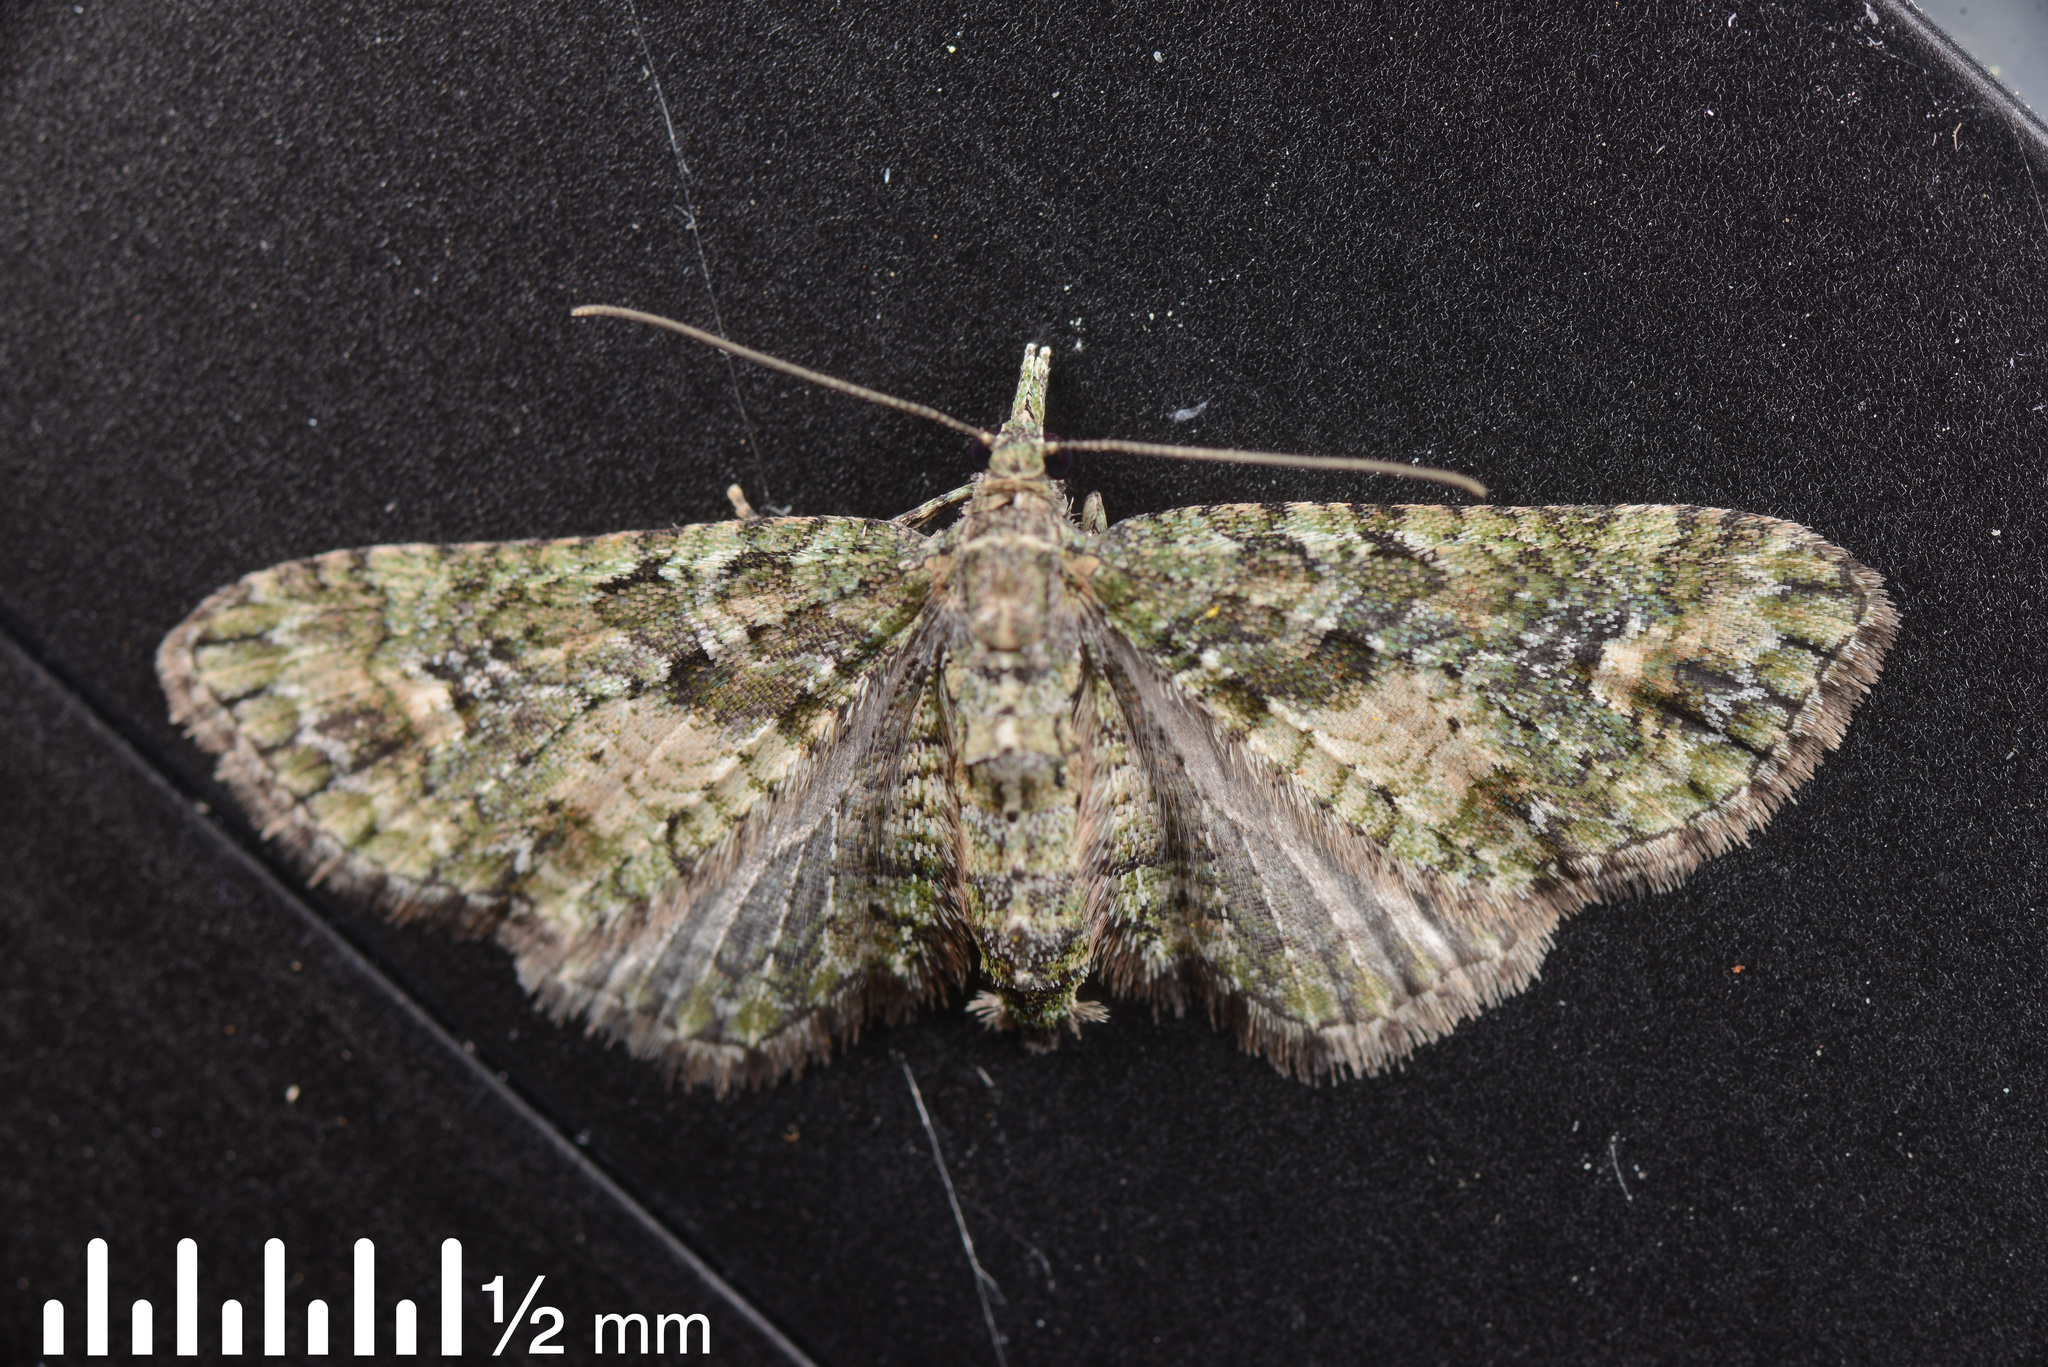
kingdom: Animalia
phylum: Arthropoda
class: Insecta
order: Lepidoptera
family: Geometridae
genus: Idaea
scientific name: Idaea mutanda
